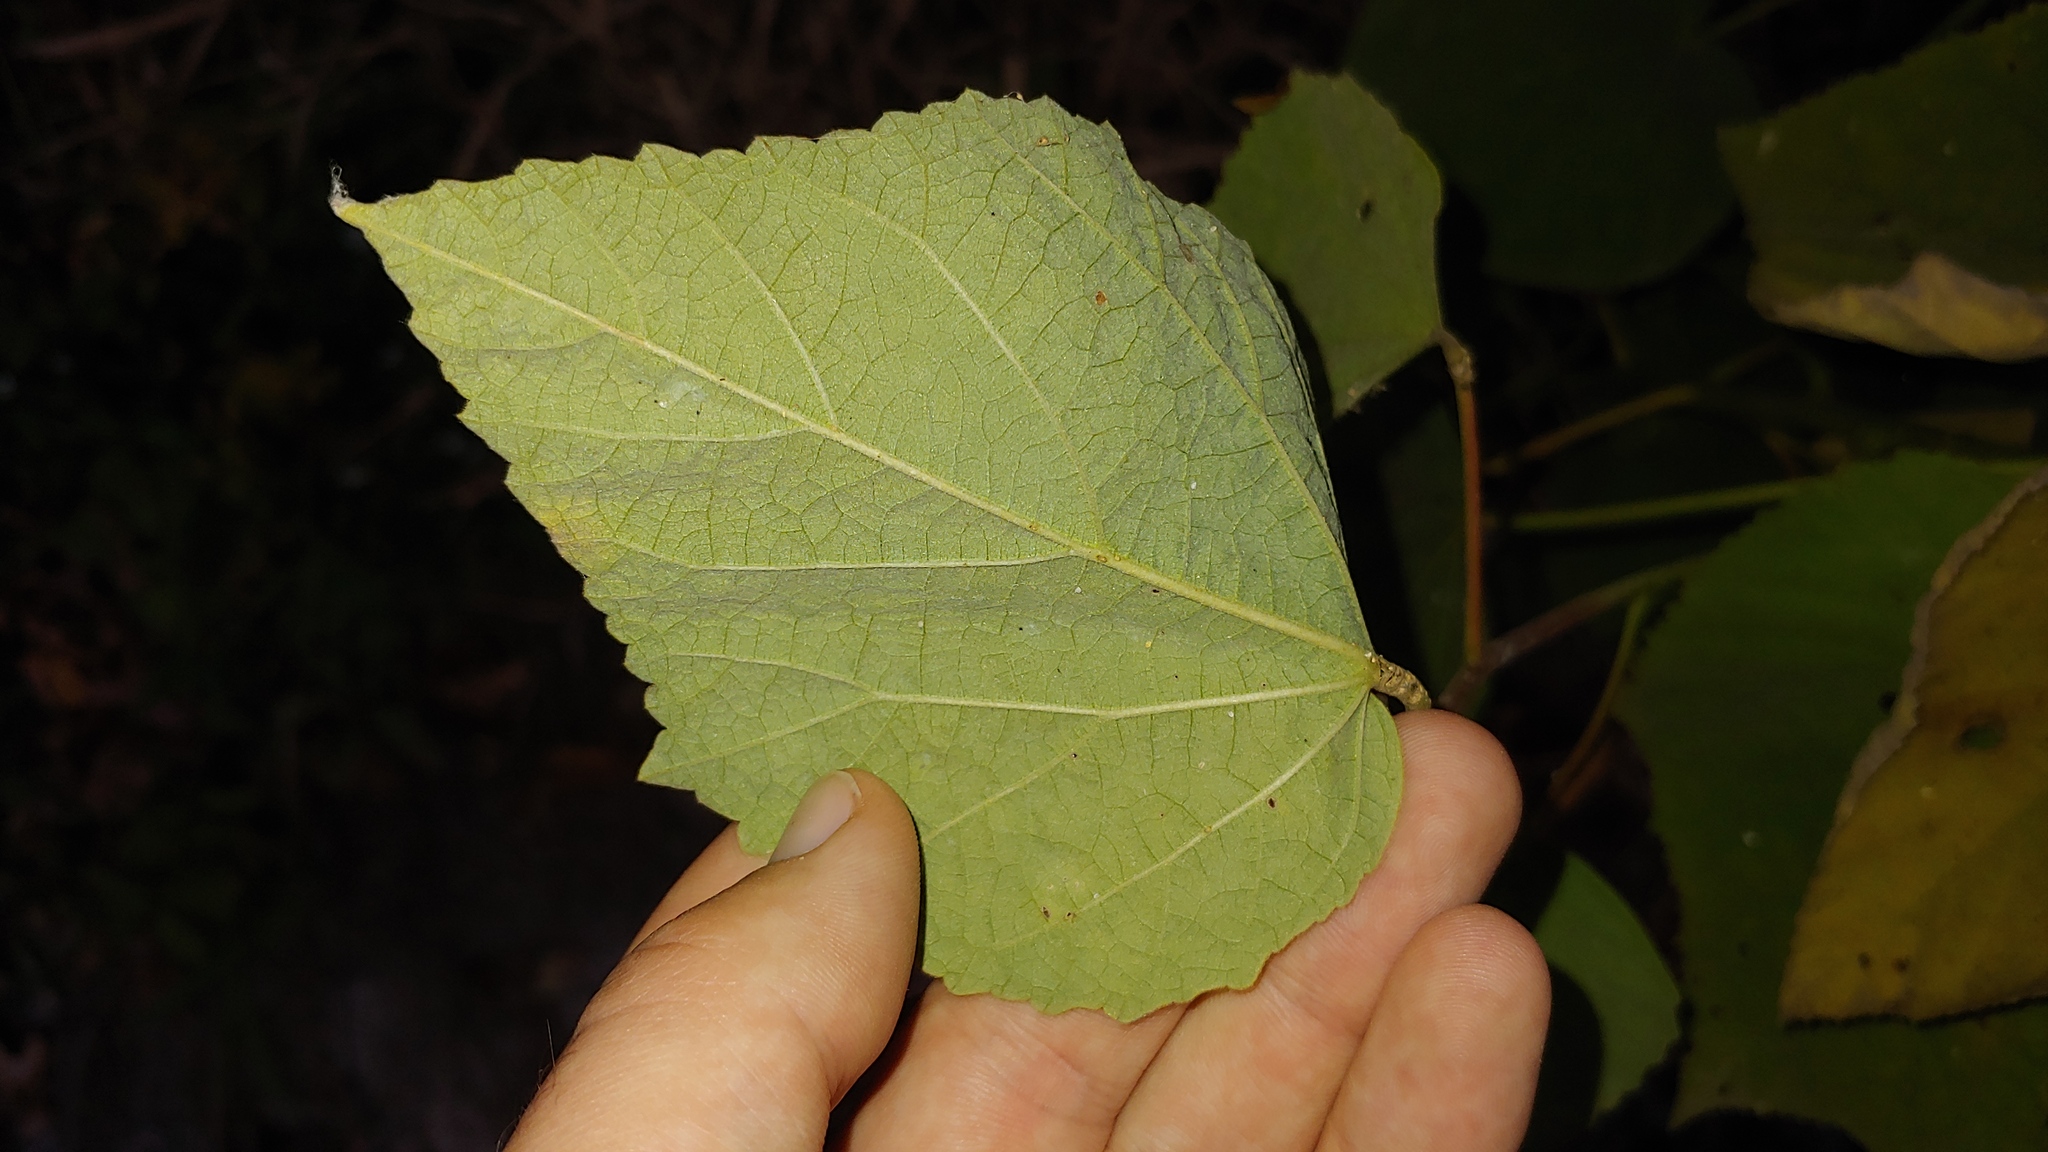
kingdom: Plantae
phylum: Tracheophyta
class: Magnoliopsida
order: Malvales
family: Malvaceae
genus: Hibiscus
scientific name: Hibiscus moscheutos
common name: Common rose-mallow
